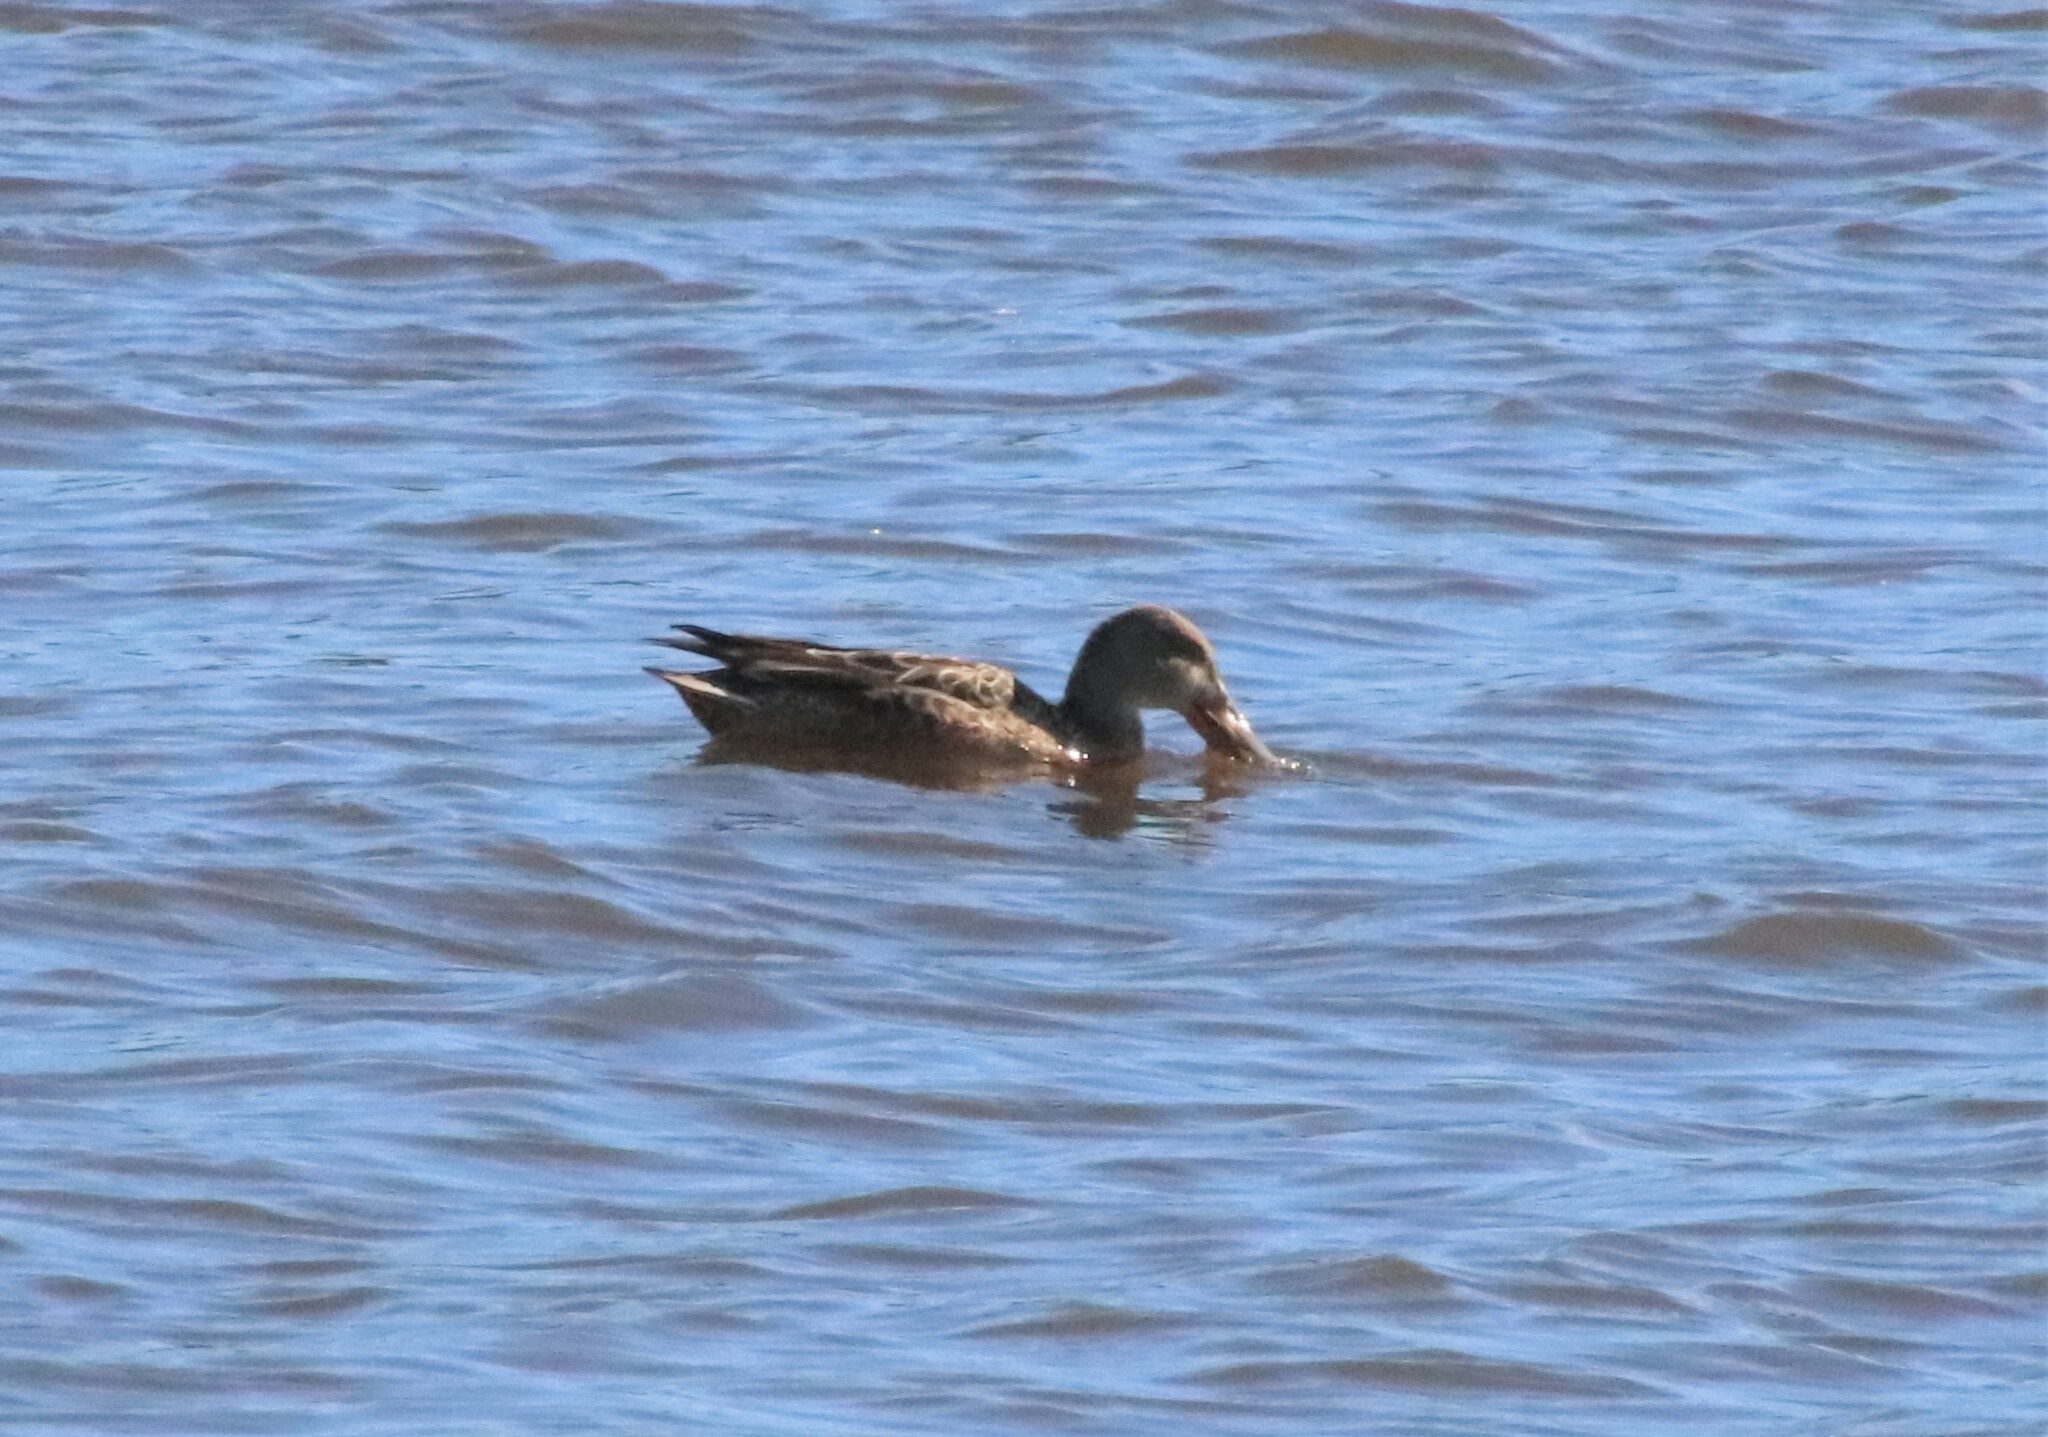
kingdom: Animalia
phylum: Chordata
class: Aves
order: Anseriformes
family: Anatidae
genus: Spatula
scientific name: Spatula clypeata
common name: Northern shoveler
